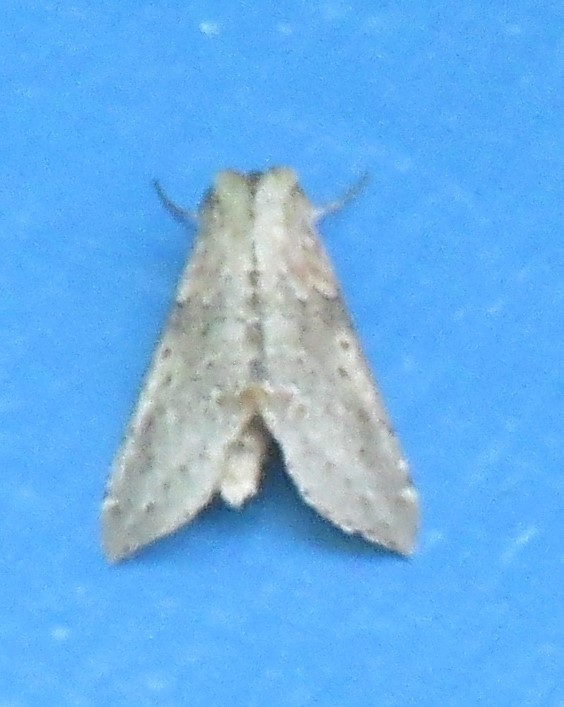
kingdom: Animalia
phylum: Arthropoda
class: Insecta
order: Lepidoptera
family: Drepanidae
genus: Pseudothyatira
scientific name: Pseudothyatira cymatophoroides
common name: Tufted thyatirid moth
